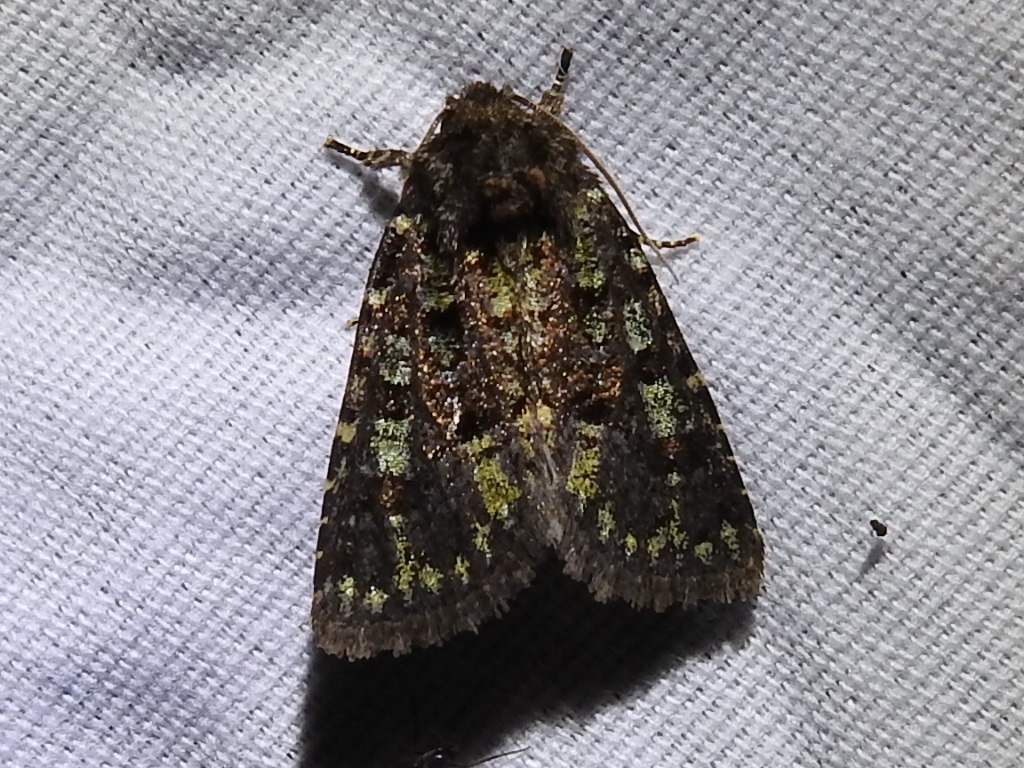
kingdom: Animalia
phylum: Arthropoda
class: Insecta
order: Lepidoptera
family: Noctuidae
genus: Paramiana
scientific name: Paramiana smaragdina
